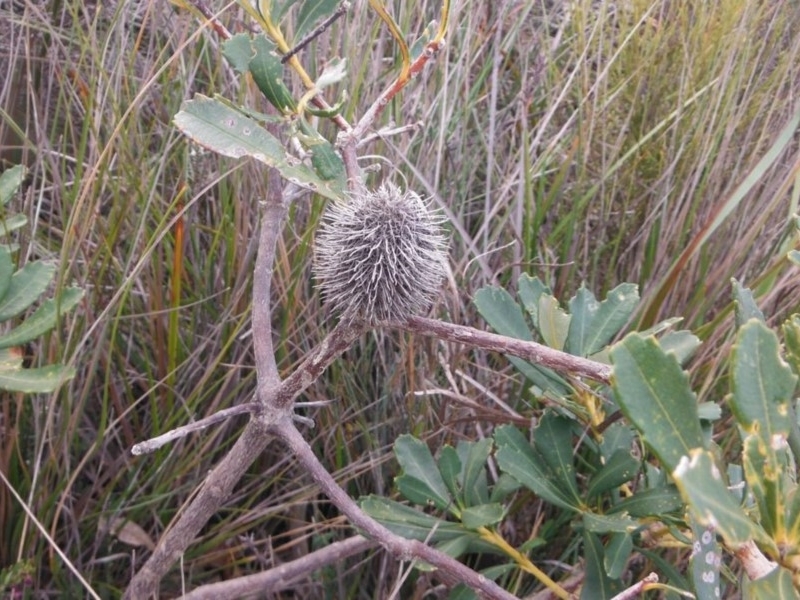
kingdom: Plantae
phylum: Tracheophyta
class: Magnoliopsida
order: Proteales
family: Proteaceae
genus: Banksia
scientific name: Banksia paludosa
